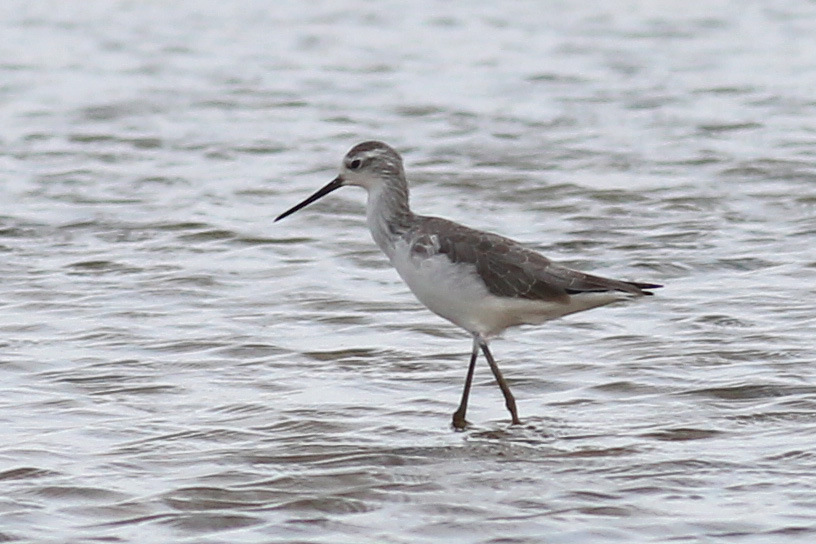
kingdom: Animalia
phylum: Chordata
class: Aves
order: Charadriiformes
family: Scolopacidae
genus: Tringa
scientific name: Tringa stagnatilis
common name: Marsh sandpiper
